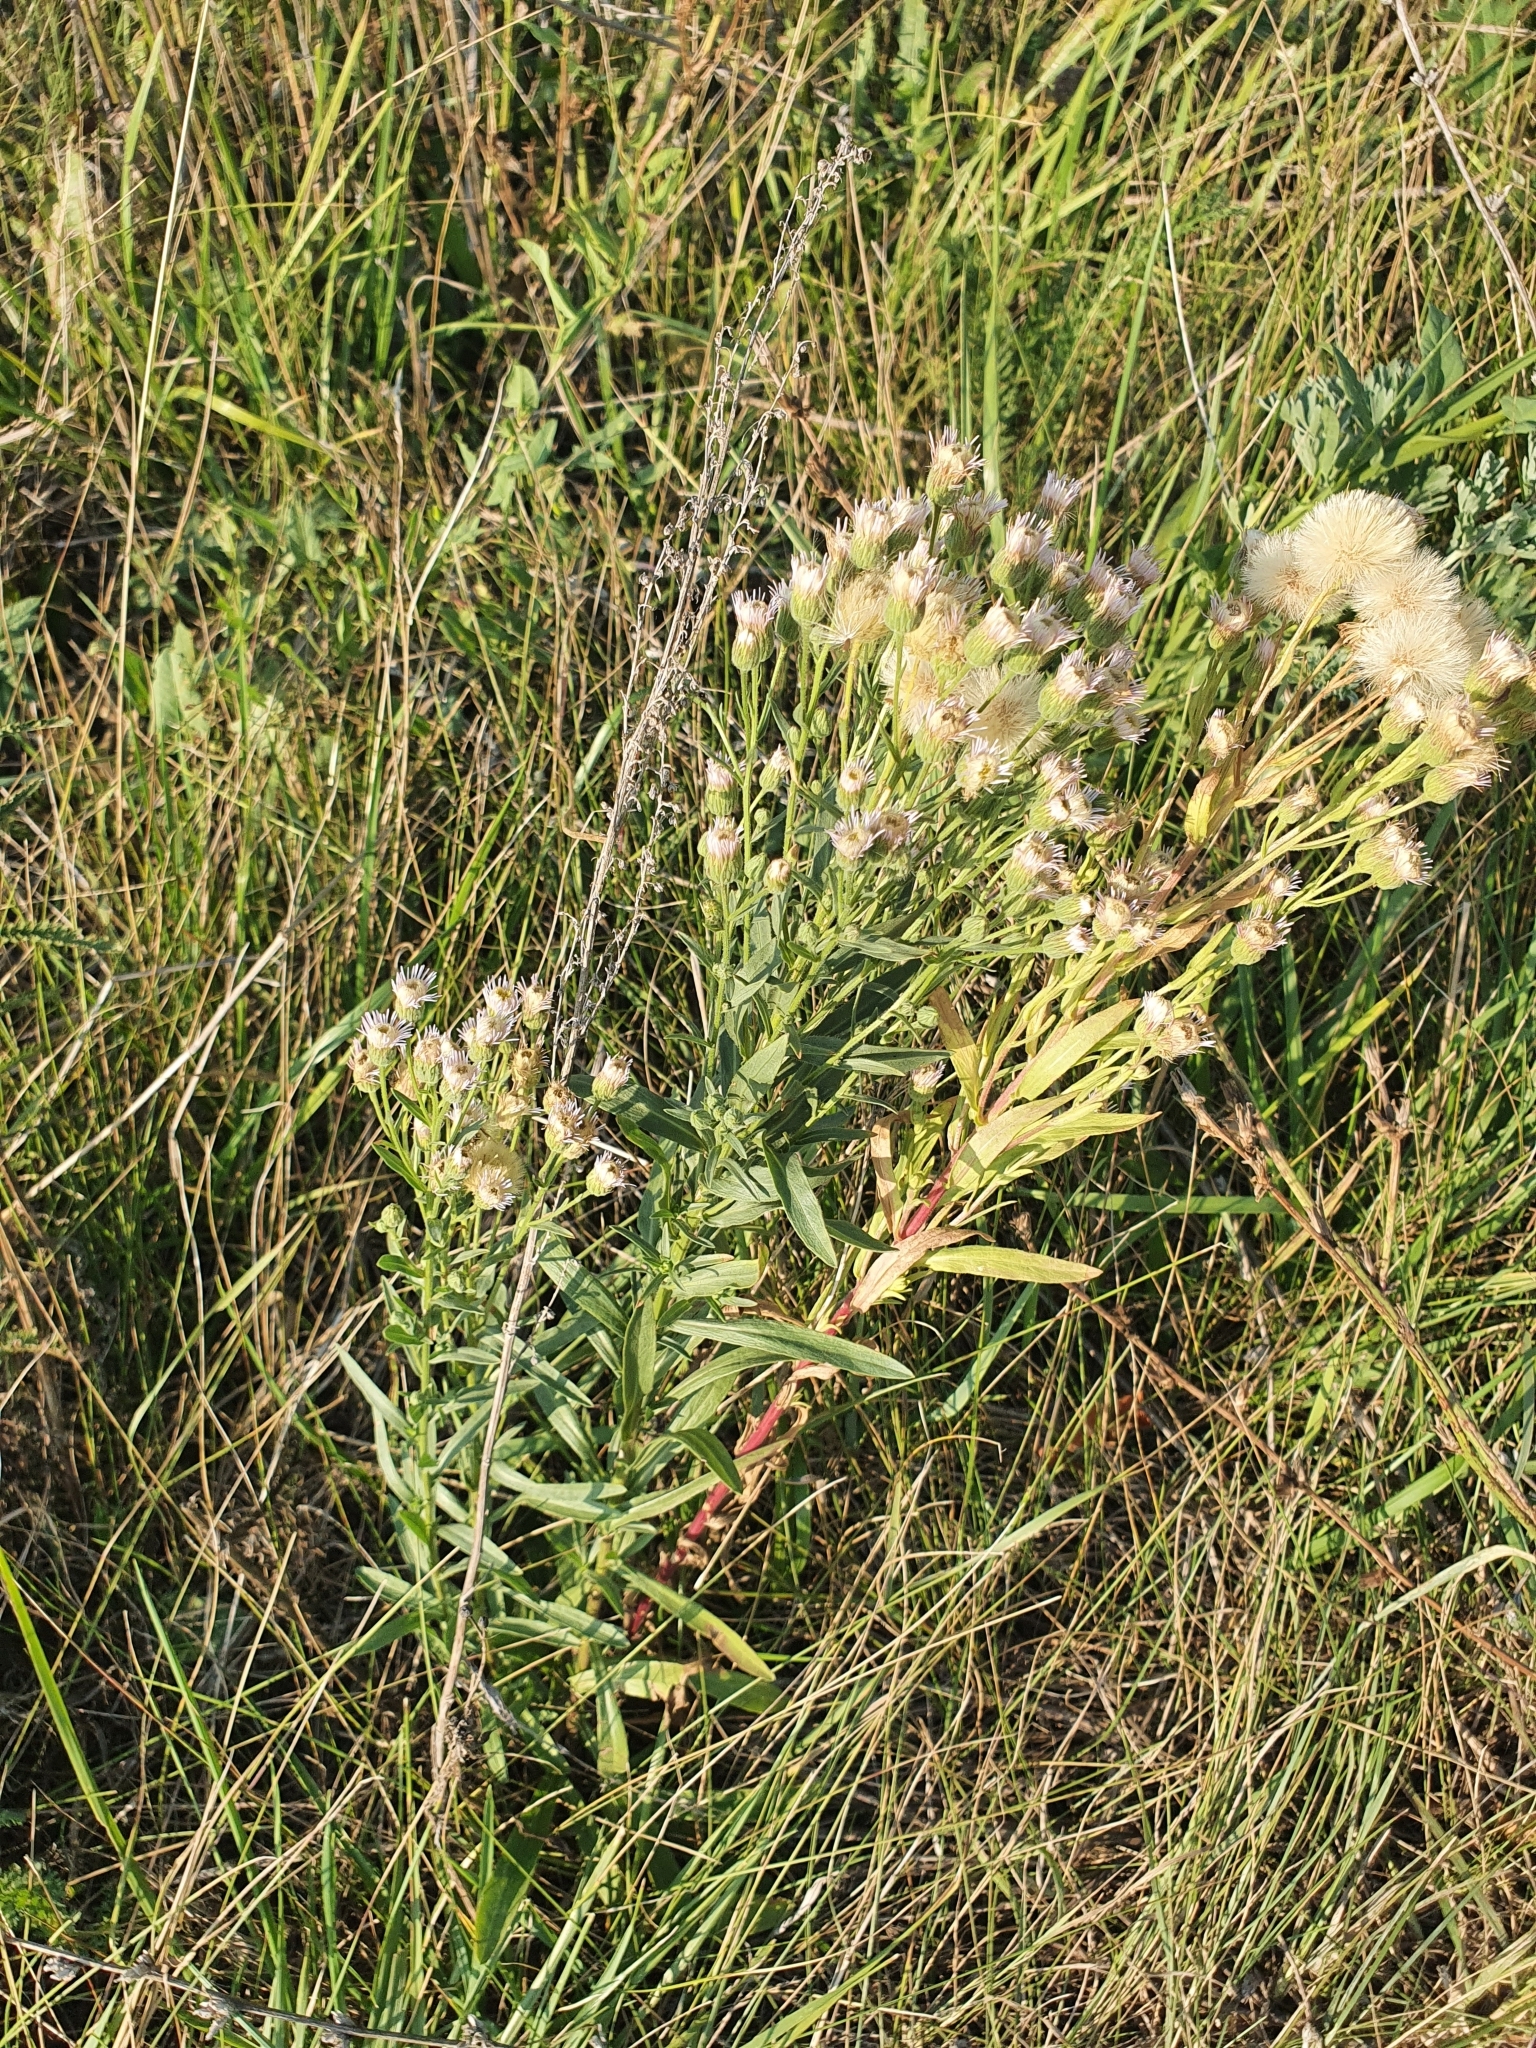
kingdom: Plantae
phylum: Tracheophyta
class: Magnoliopsida
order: Asterales
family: Asteraceae
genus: Erigeron
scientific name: Erigeron acris
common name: Blue fleabane
